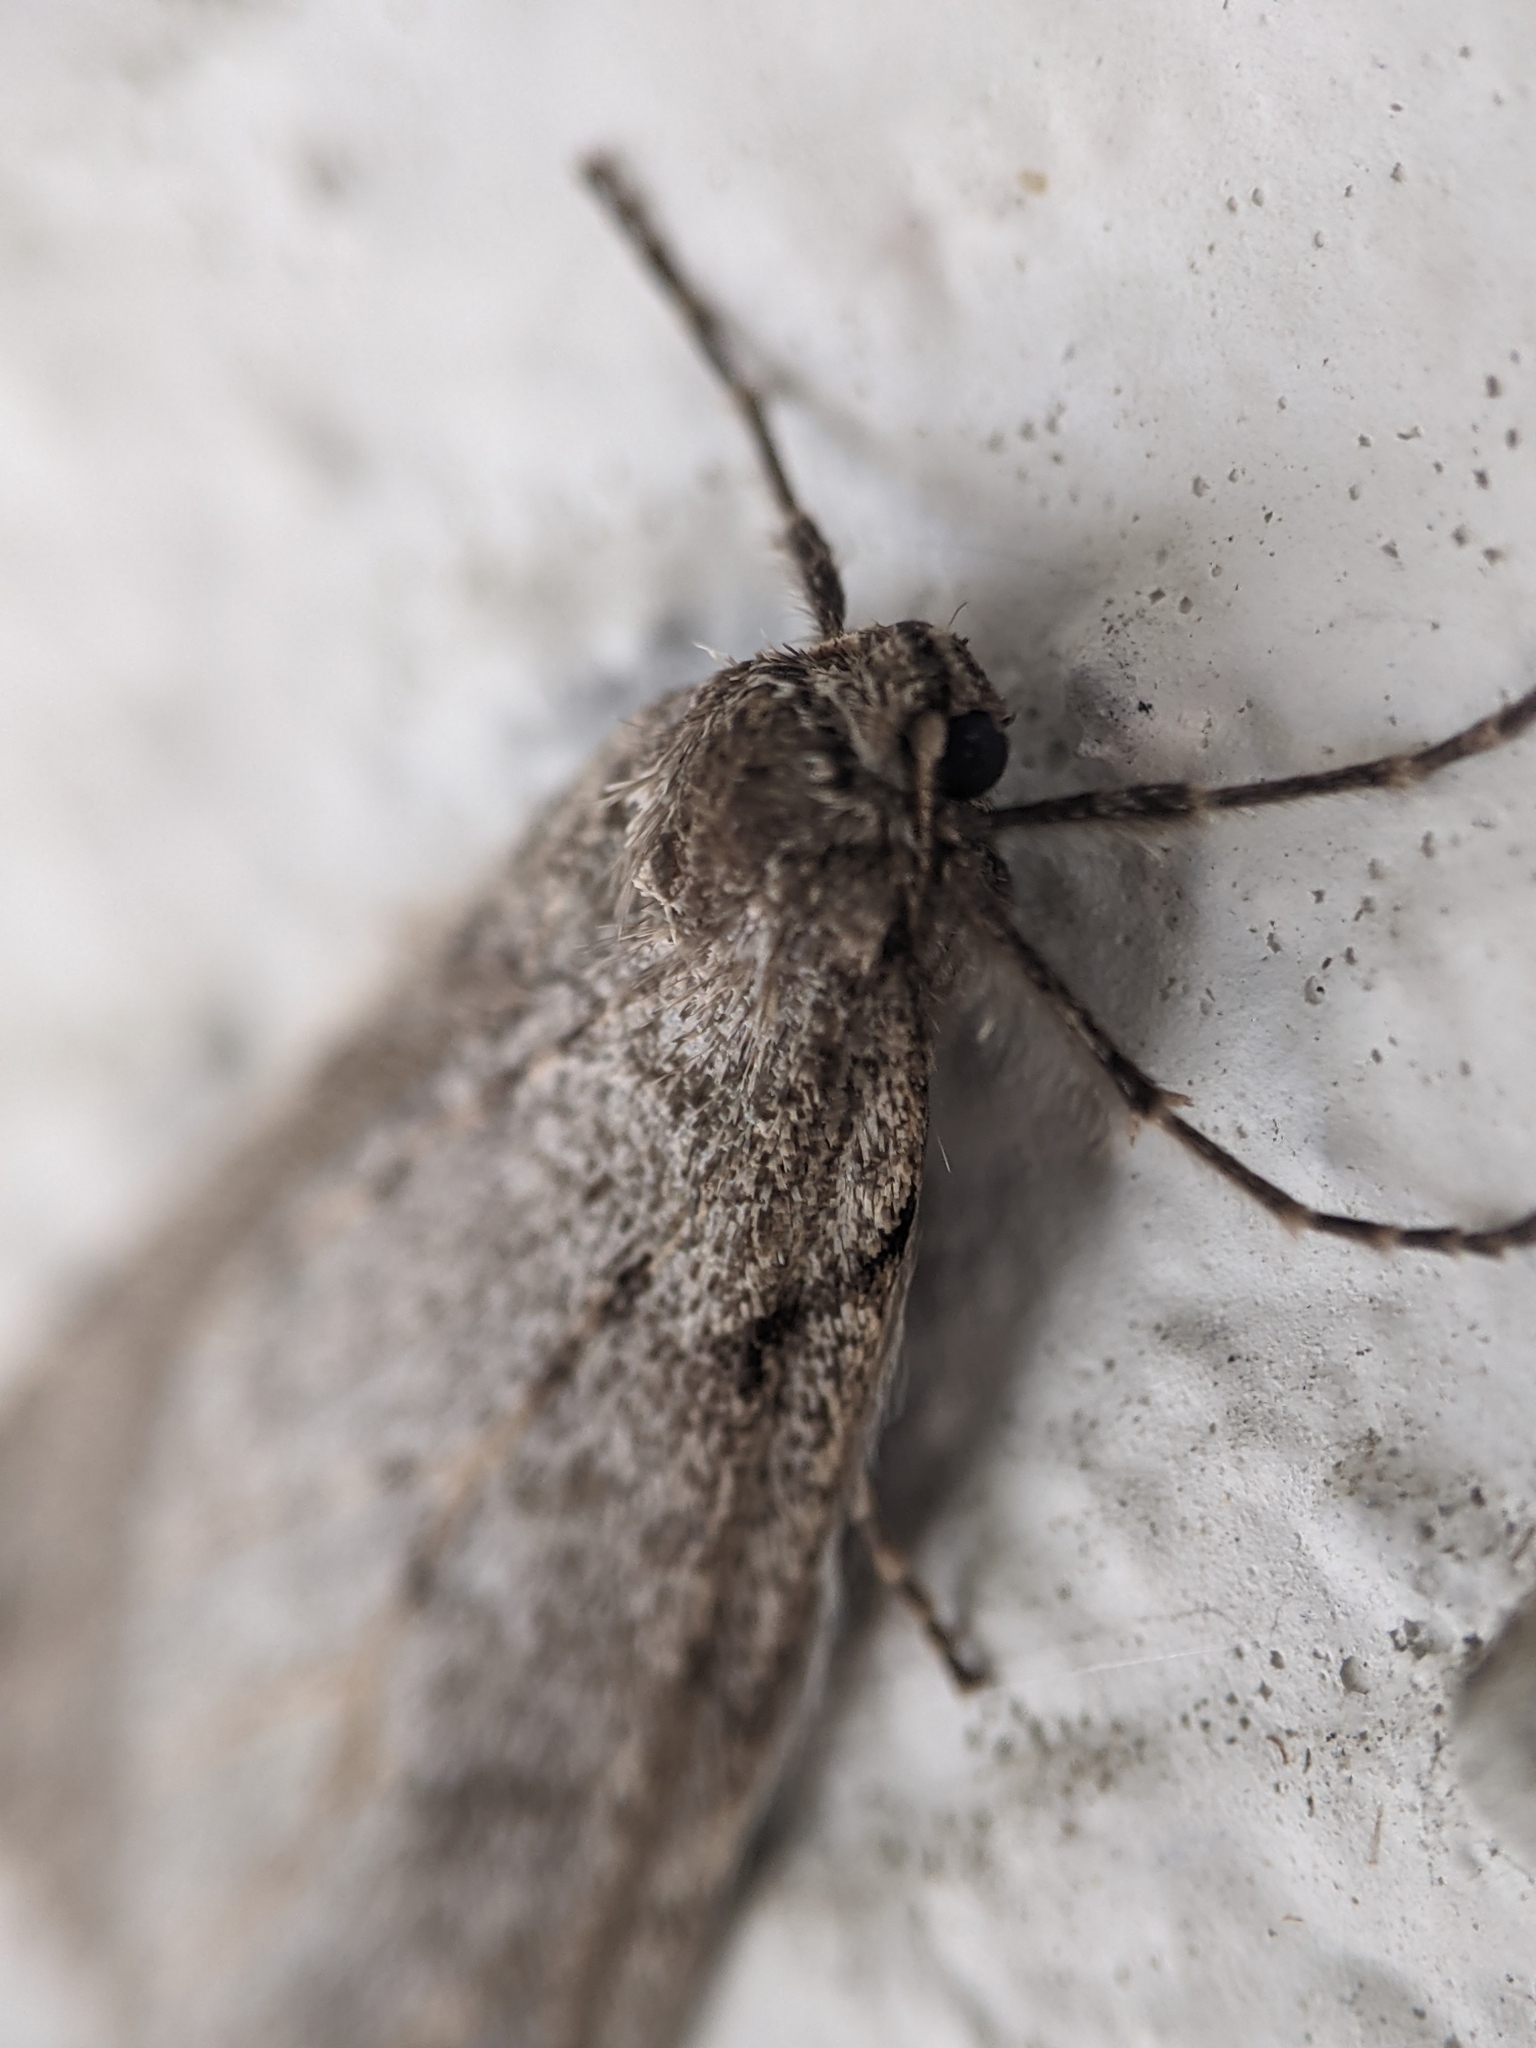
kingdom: Animalia
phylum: Arthropoda
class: Insecta
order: Lepidoptera
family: Geometridae
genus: Paleacrita
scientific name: Paleacrita vernata
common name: Spring cankerworm
